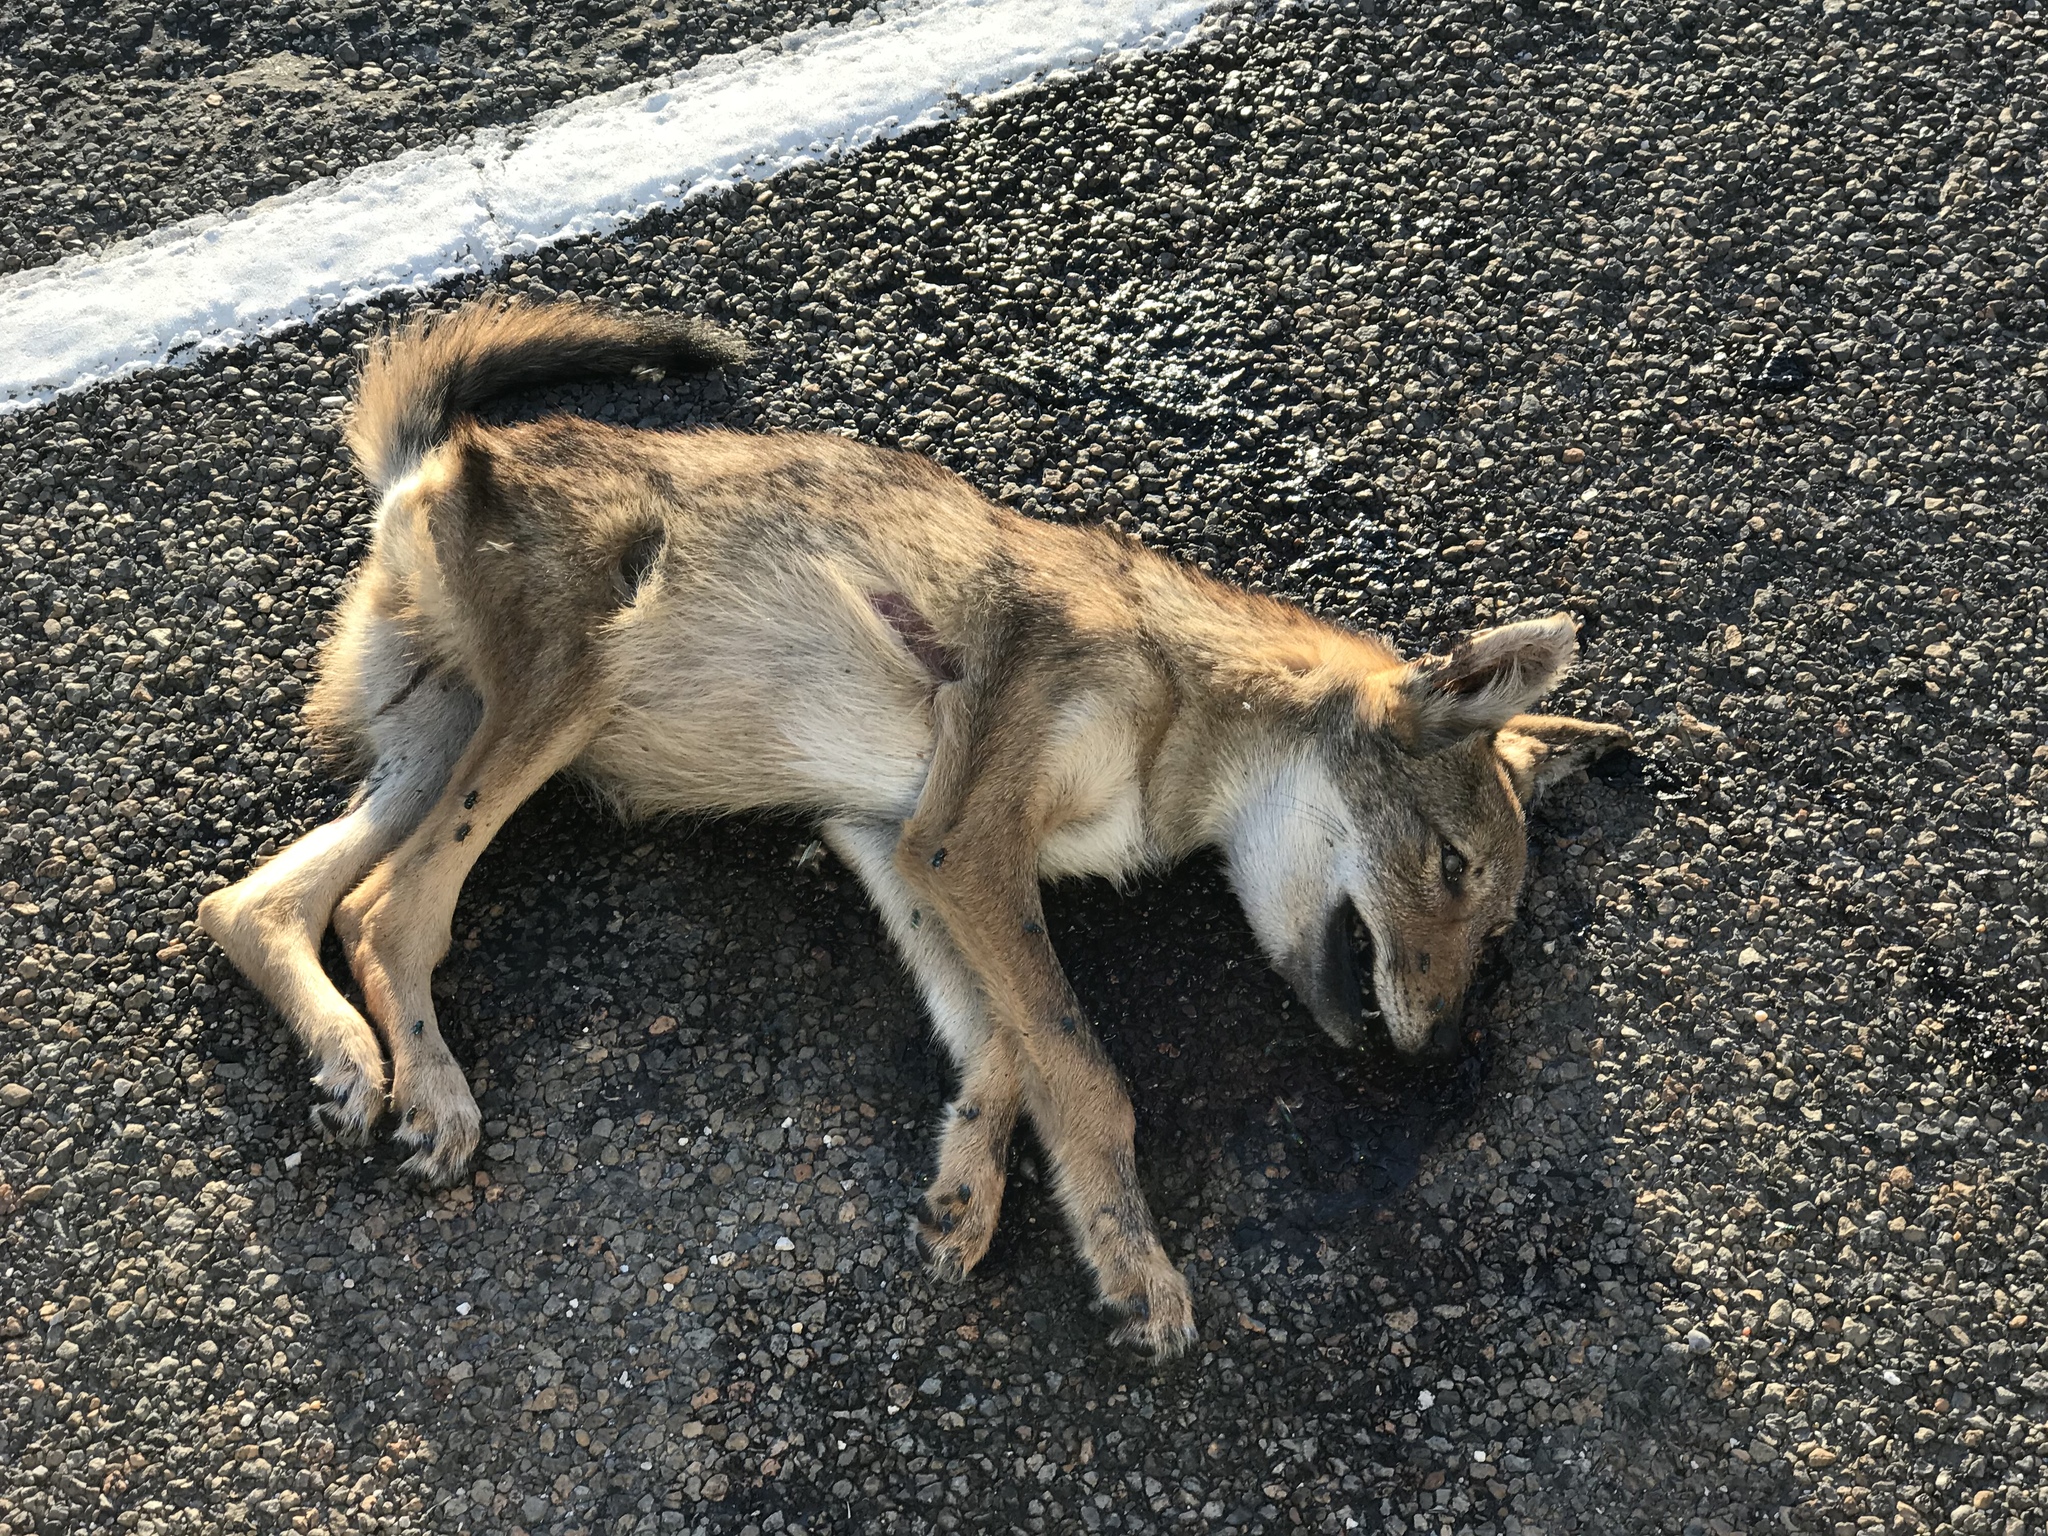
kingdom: Animalia
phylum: Chordata
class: Mammalia
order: Carnivora
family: Canidae
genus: Canis
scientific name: Canis latrans
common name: Coyote
